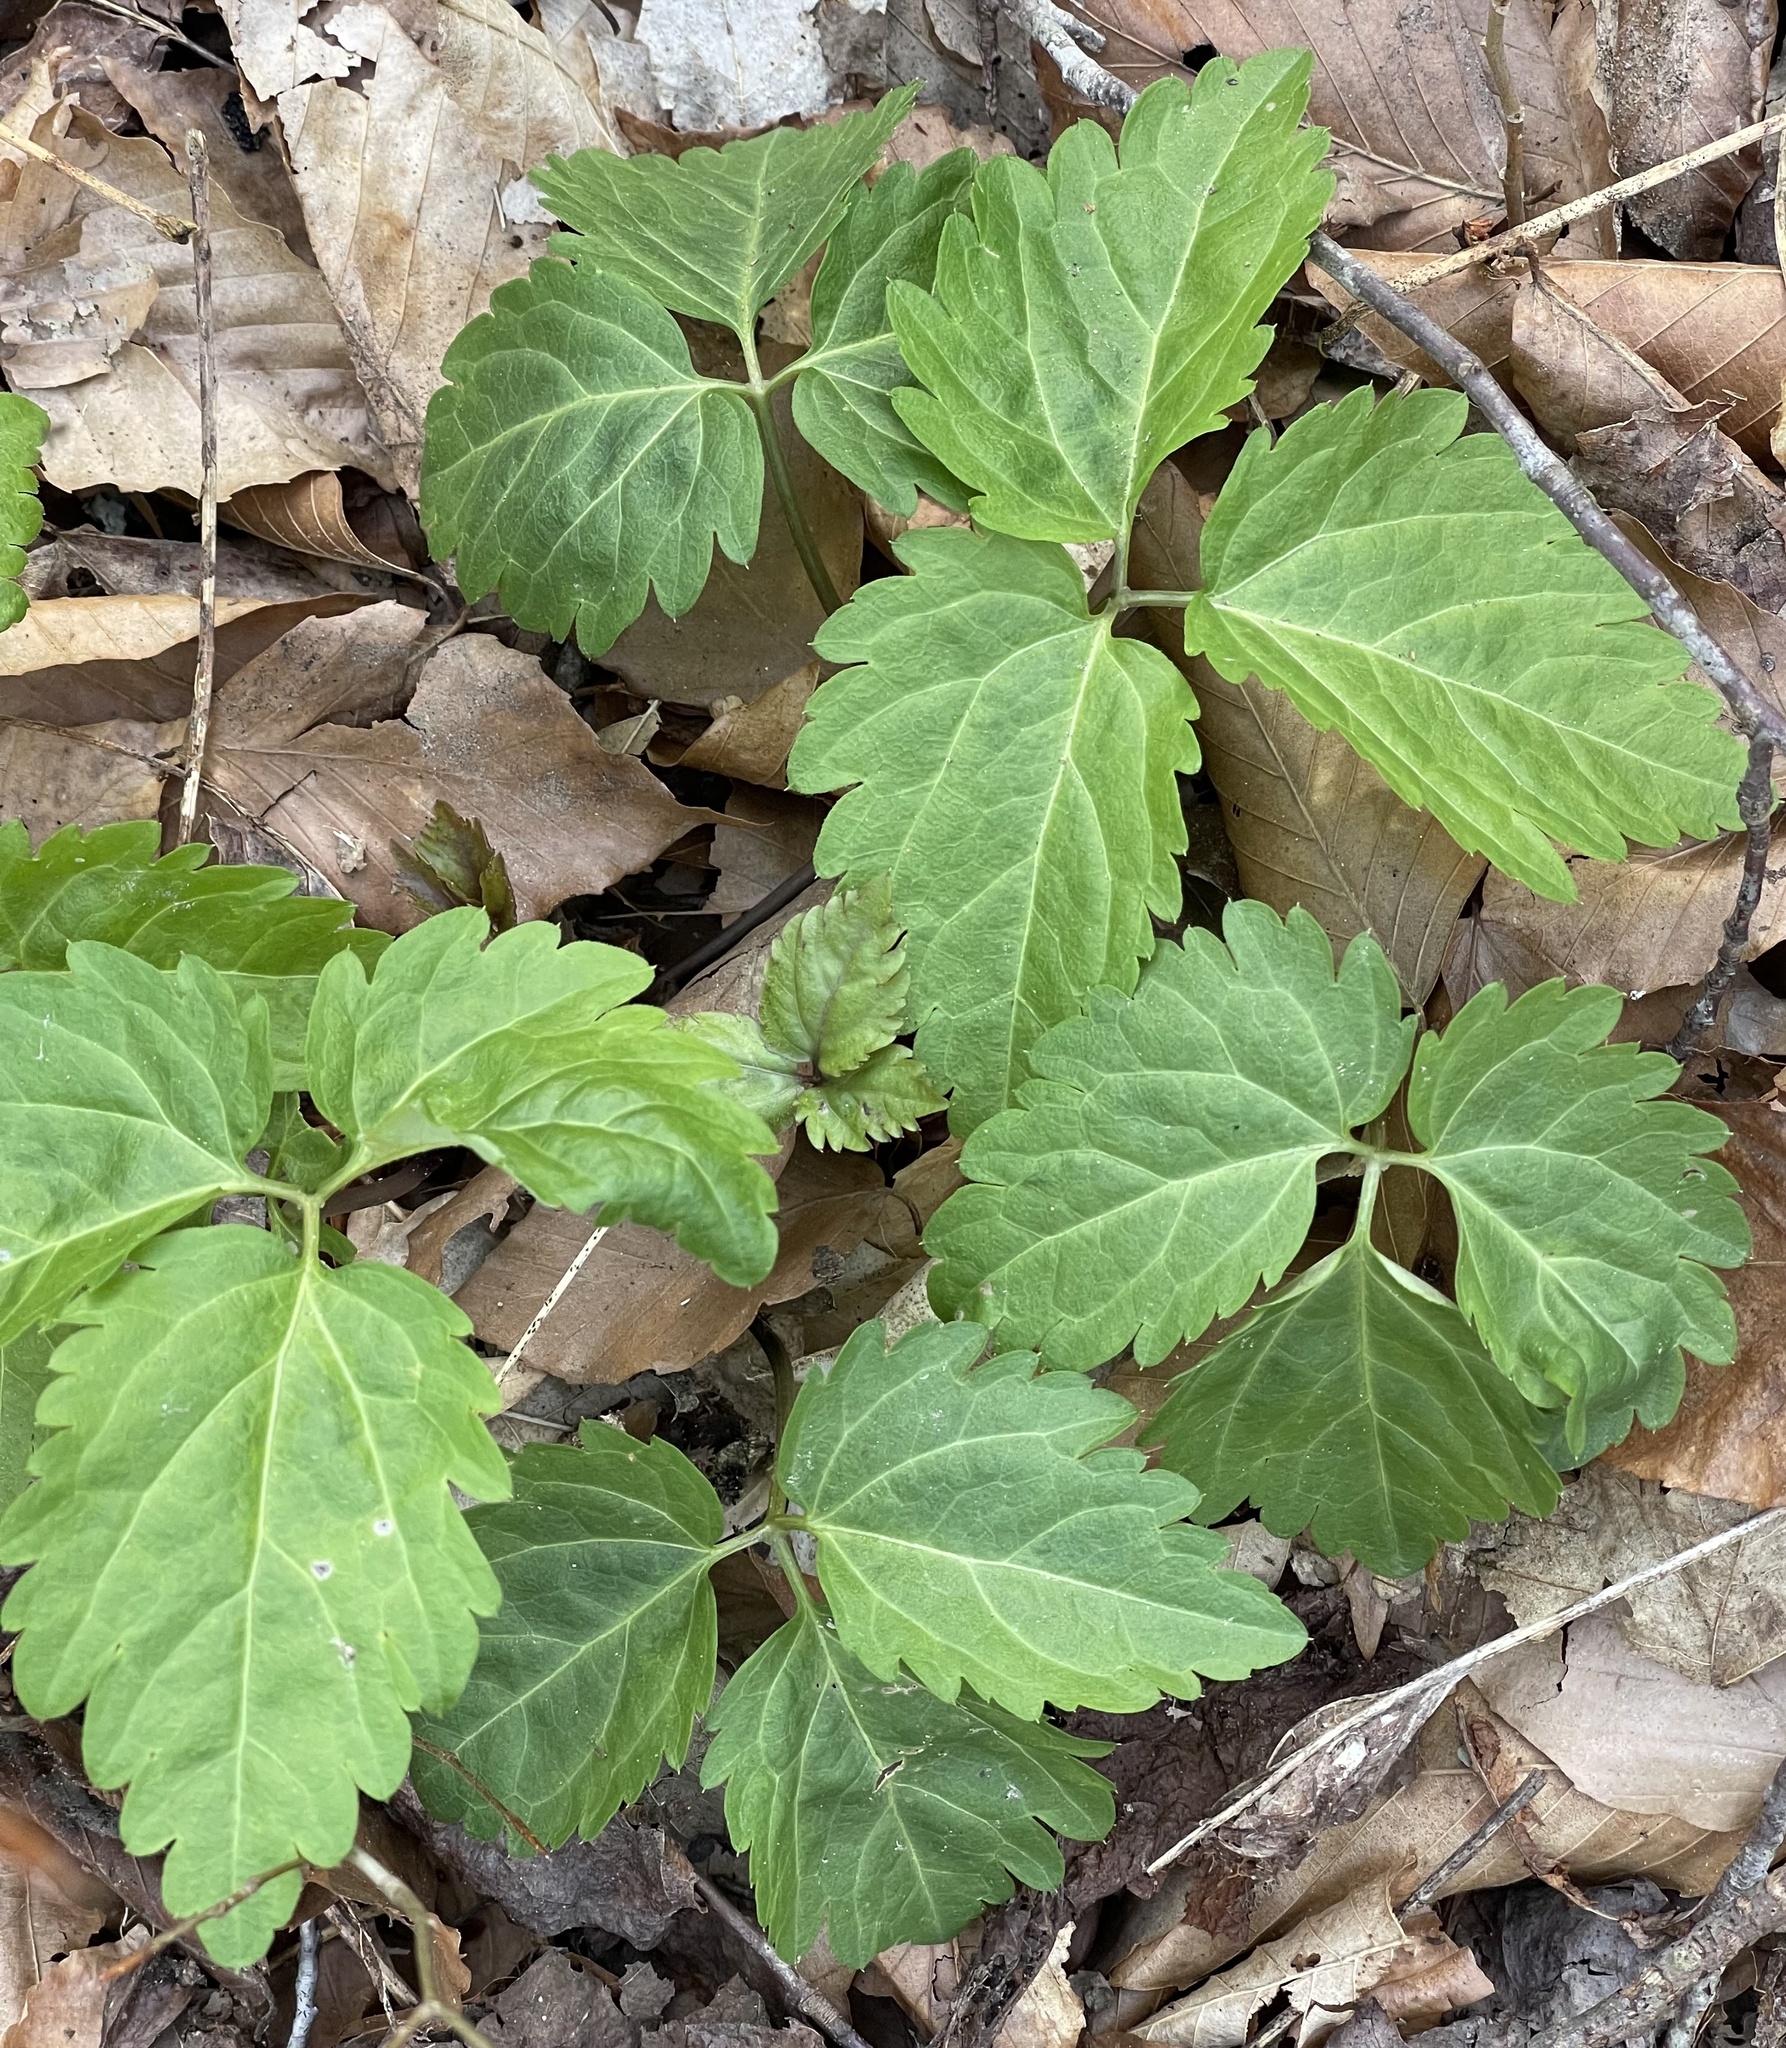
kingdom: Plantae
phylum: Tracheophyta
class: Magnoliopsida
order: Brassicales
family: Brassicaceae
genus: Cardamine
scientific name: Cardamine diphylla
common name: Broad-leaved toothwort
